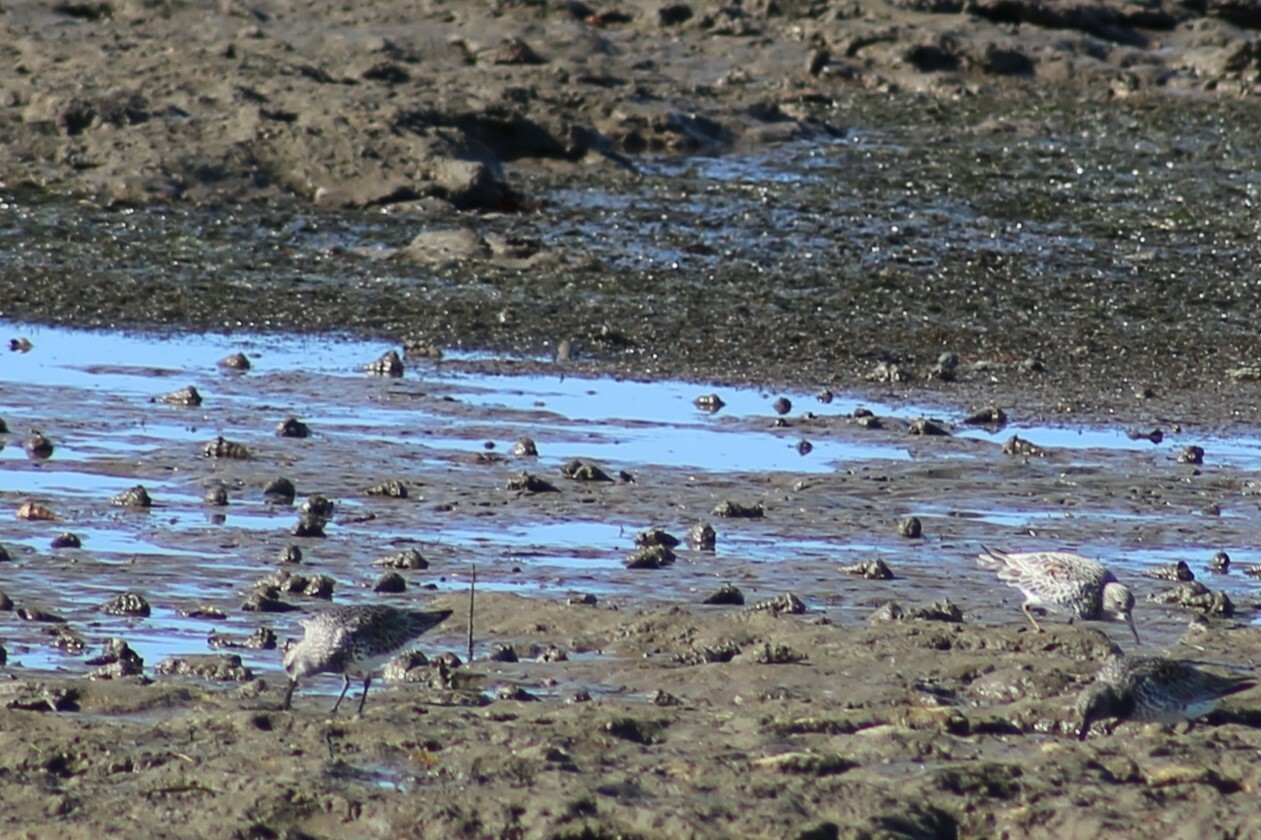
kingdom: Animalia
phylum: Chordata
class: Aves
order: Charadriiformes
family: Scolopacidae
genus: Calidris
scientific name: Calidris tenuirostris
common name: Great knot
